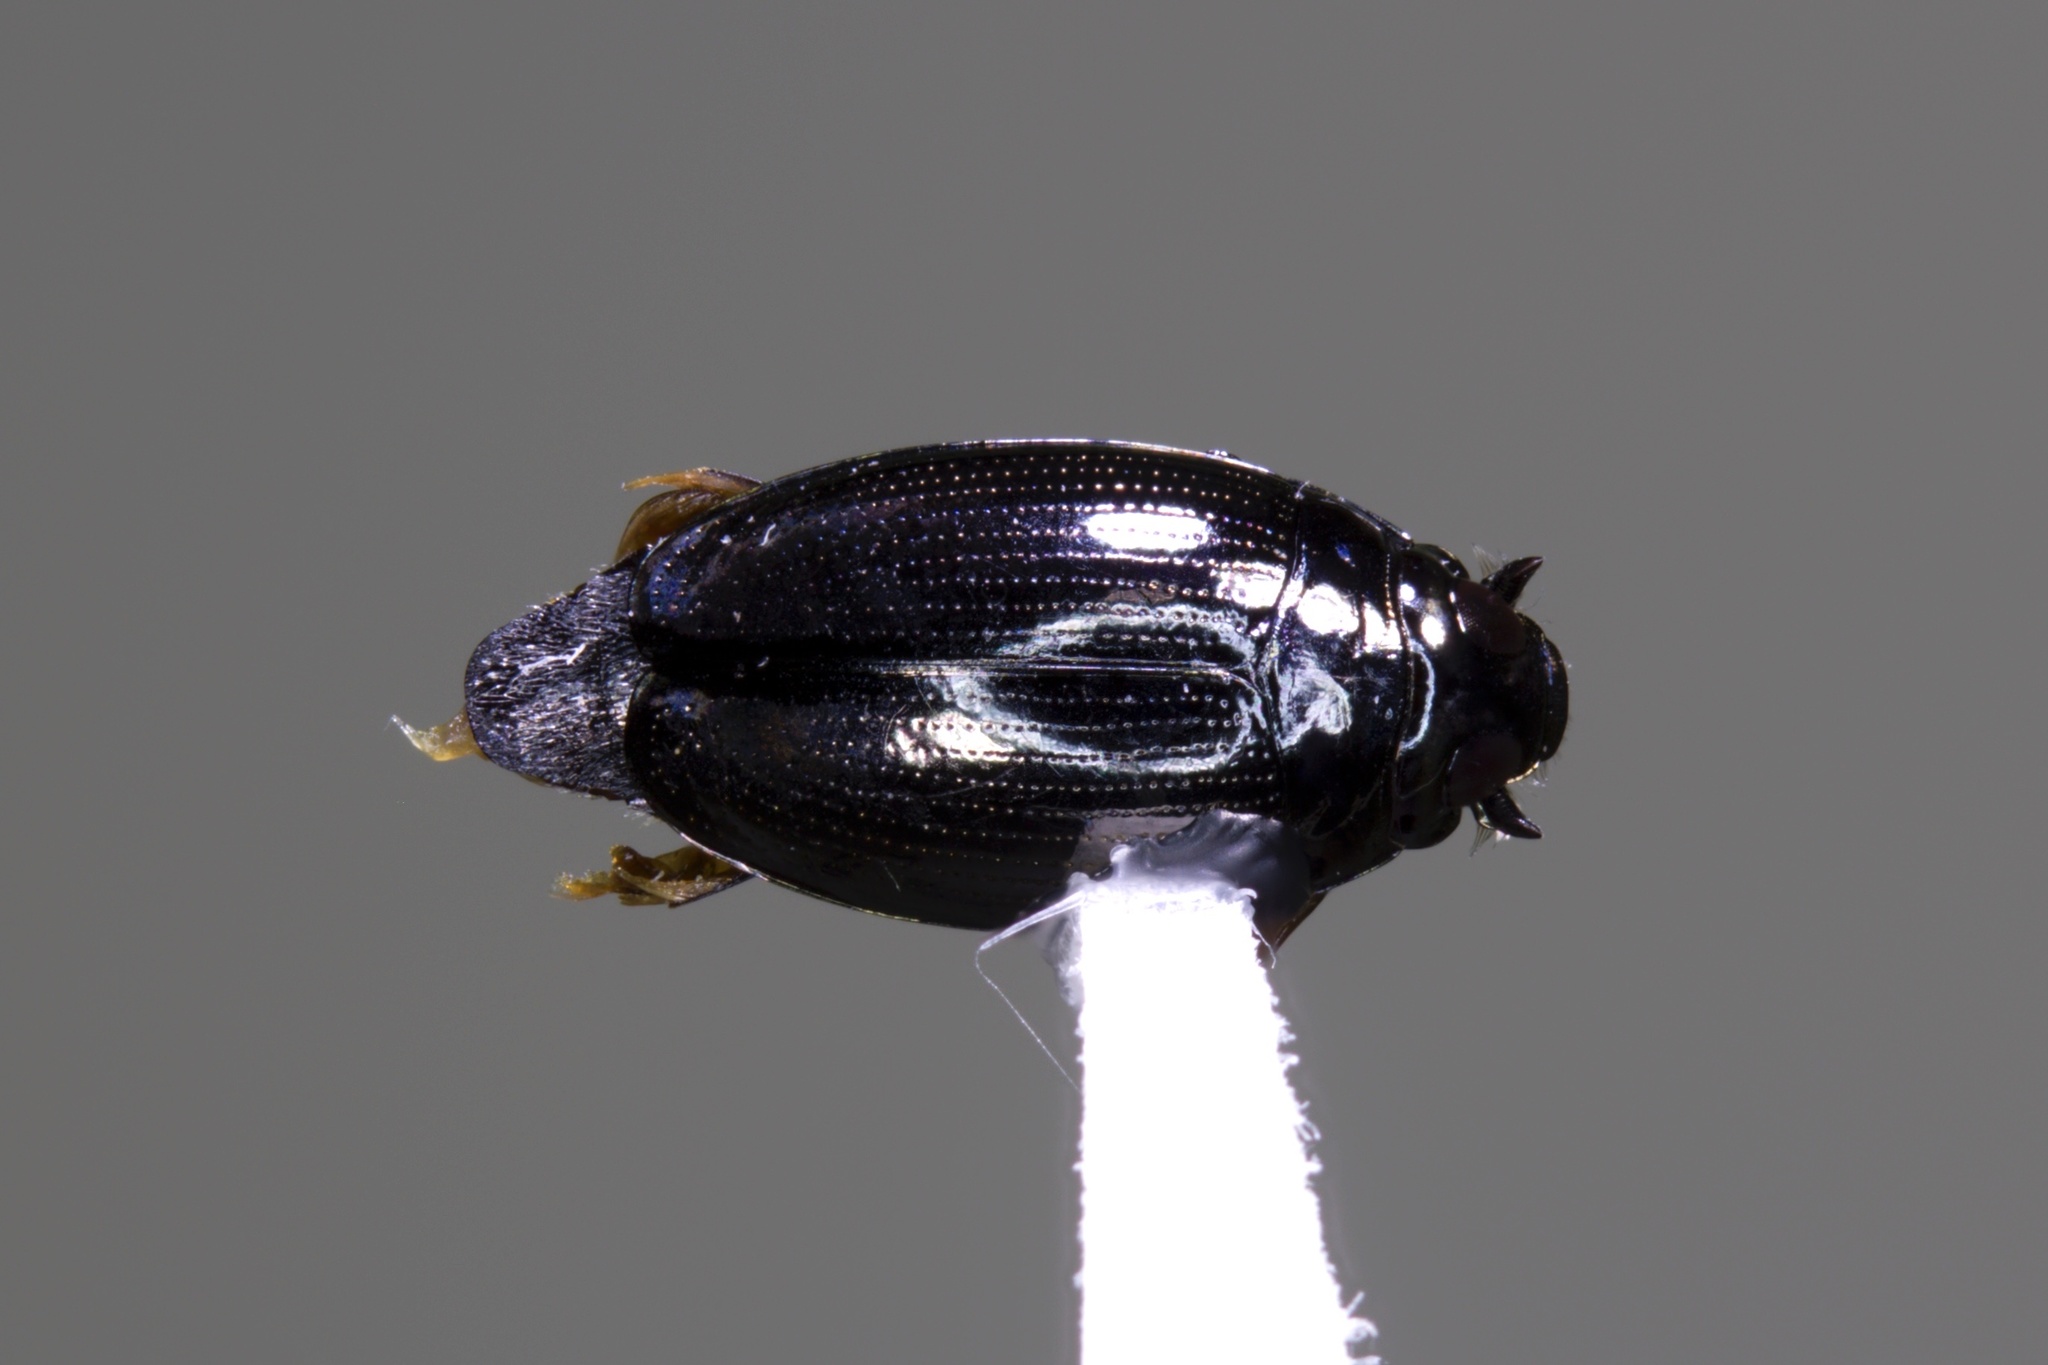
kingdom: Animalia
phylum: Arthropoda
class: Insecta
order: Coleoptera
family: Gyrinidae
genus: Gyrinus
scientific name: Gyrinus woodruffi
